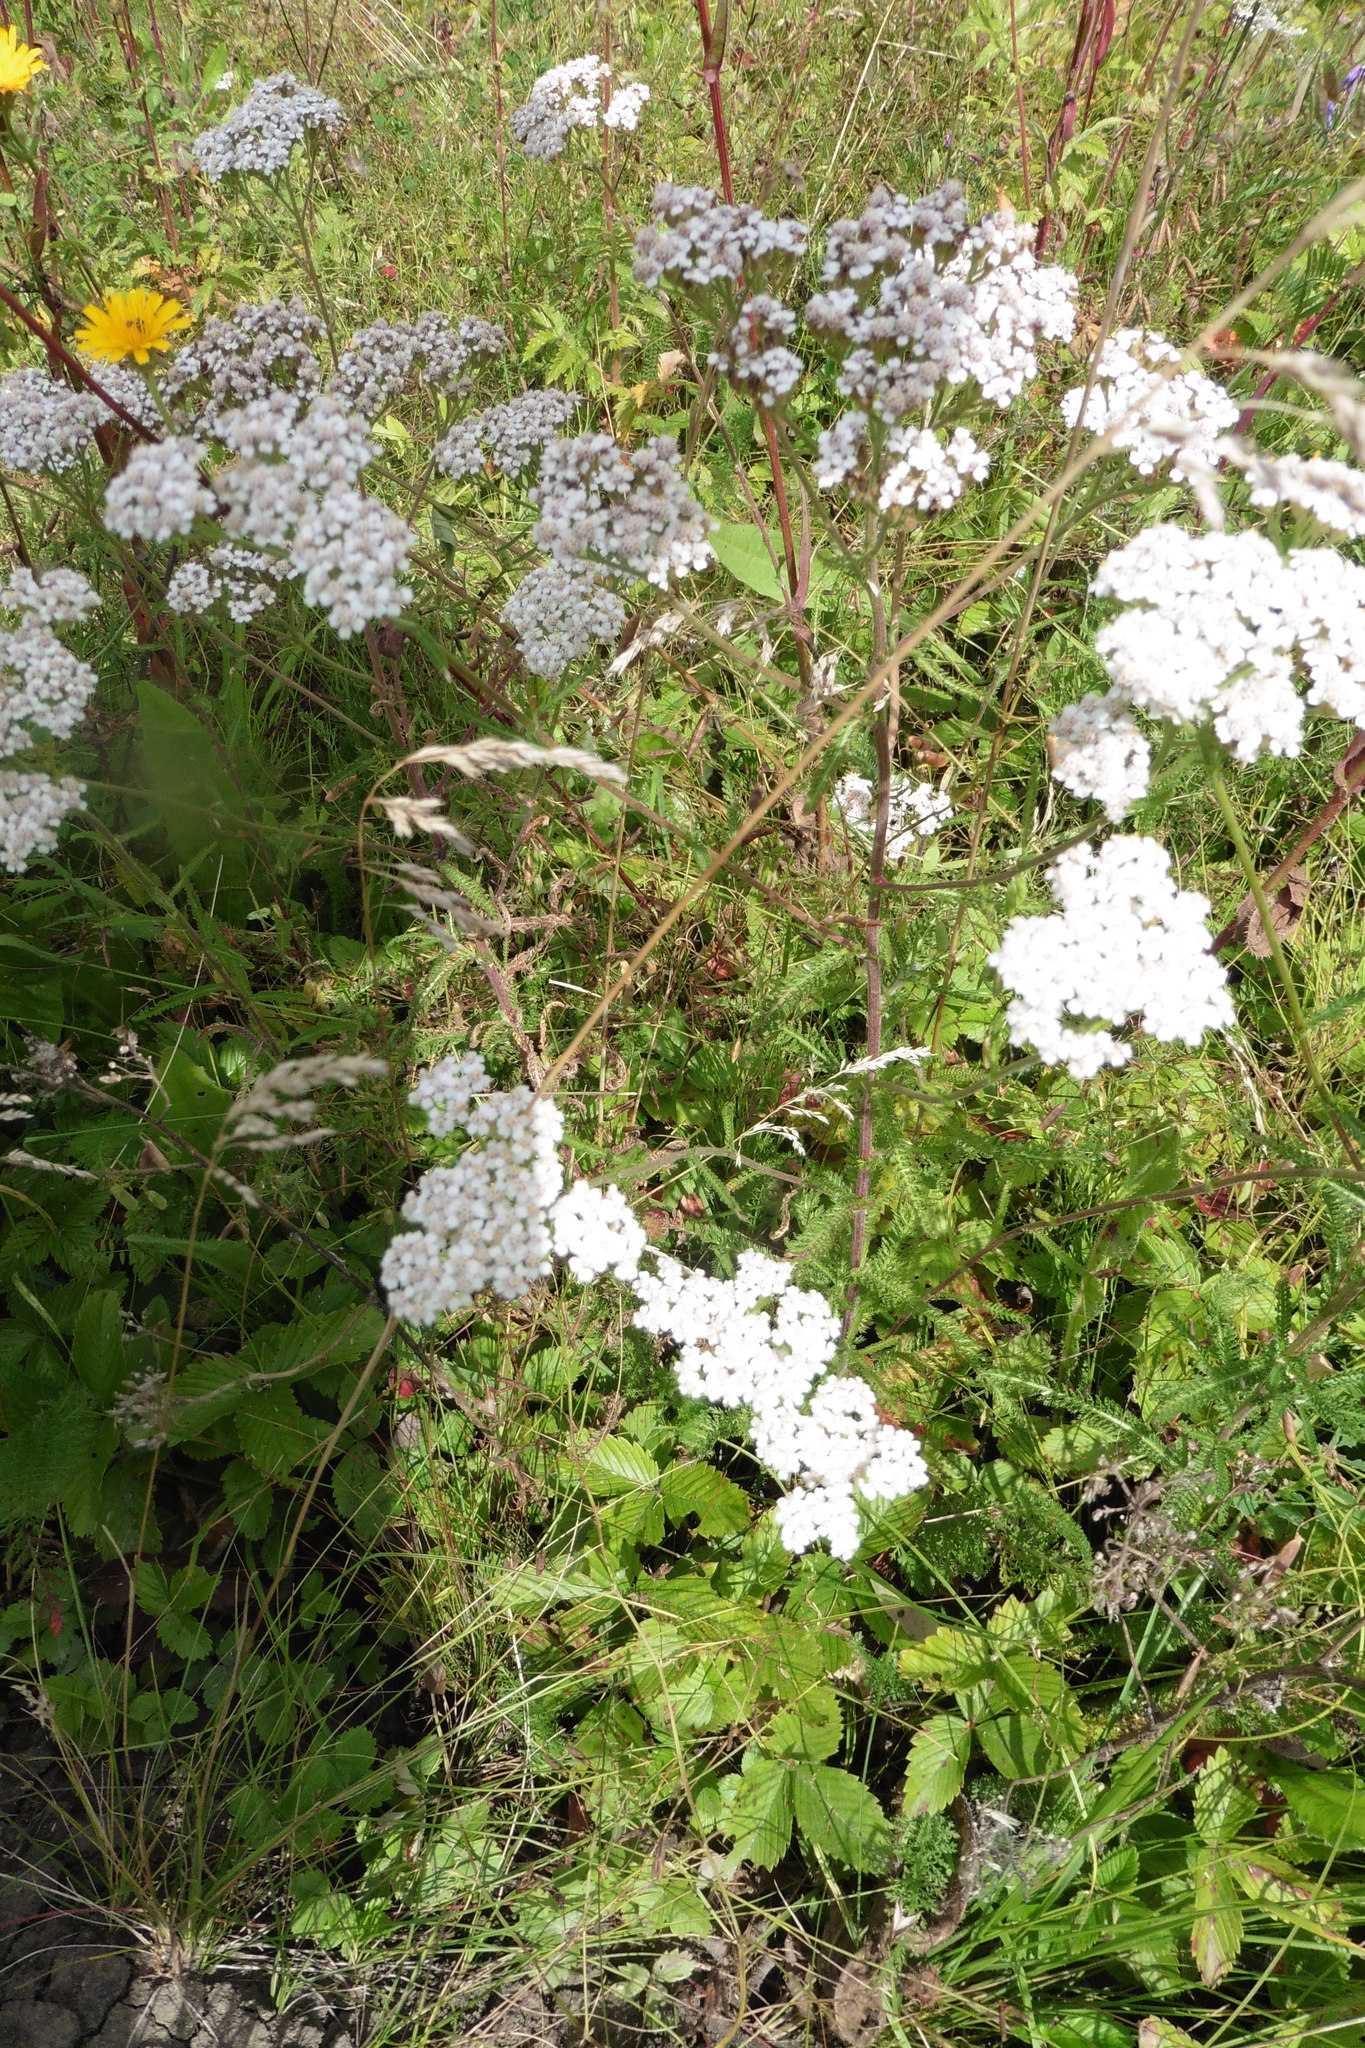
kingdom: Plantae
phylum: Tracheophyta
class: Magnoliopsida
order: Asterales
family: Asteraceae
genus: Achillea
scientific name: Achillea millefolium
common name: Yarrow
